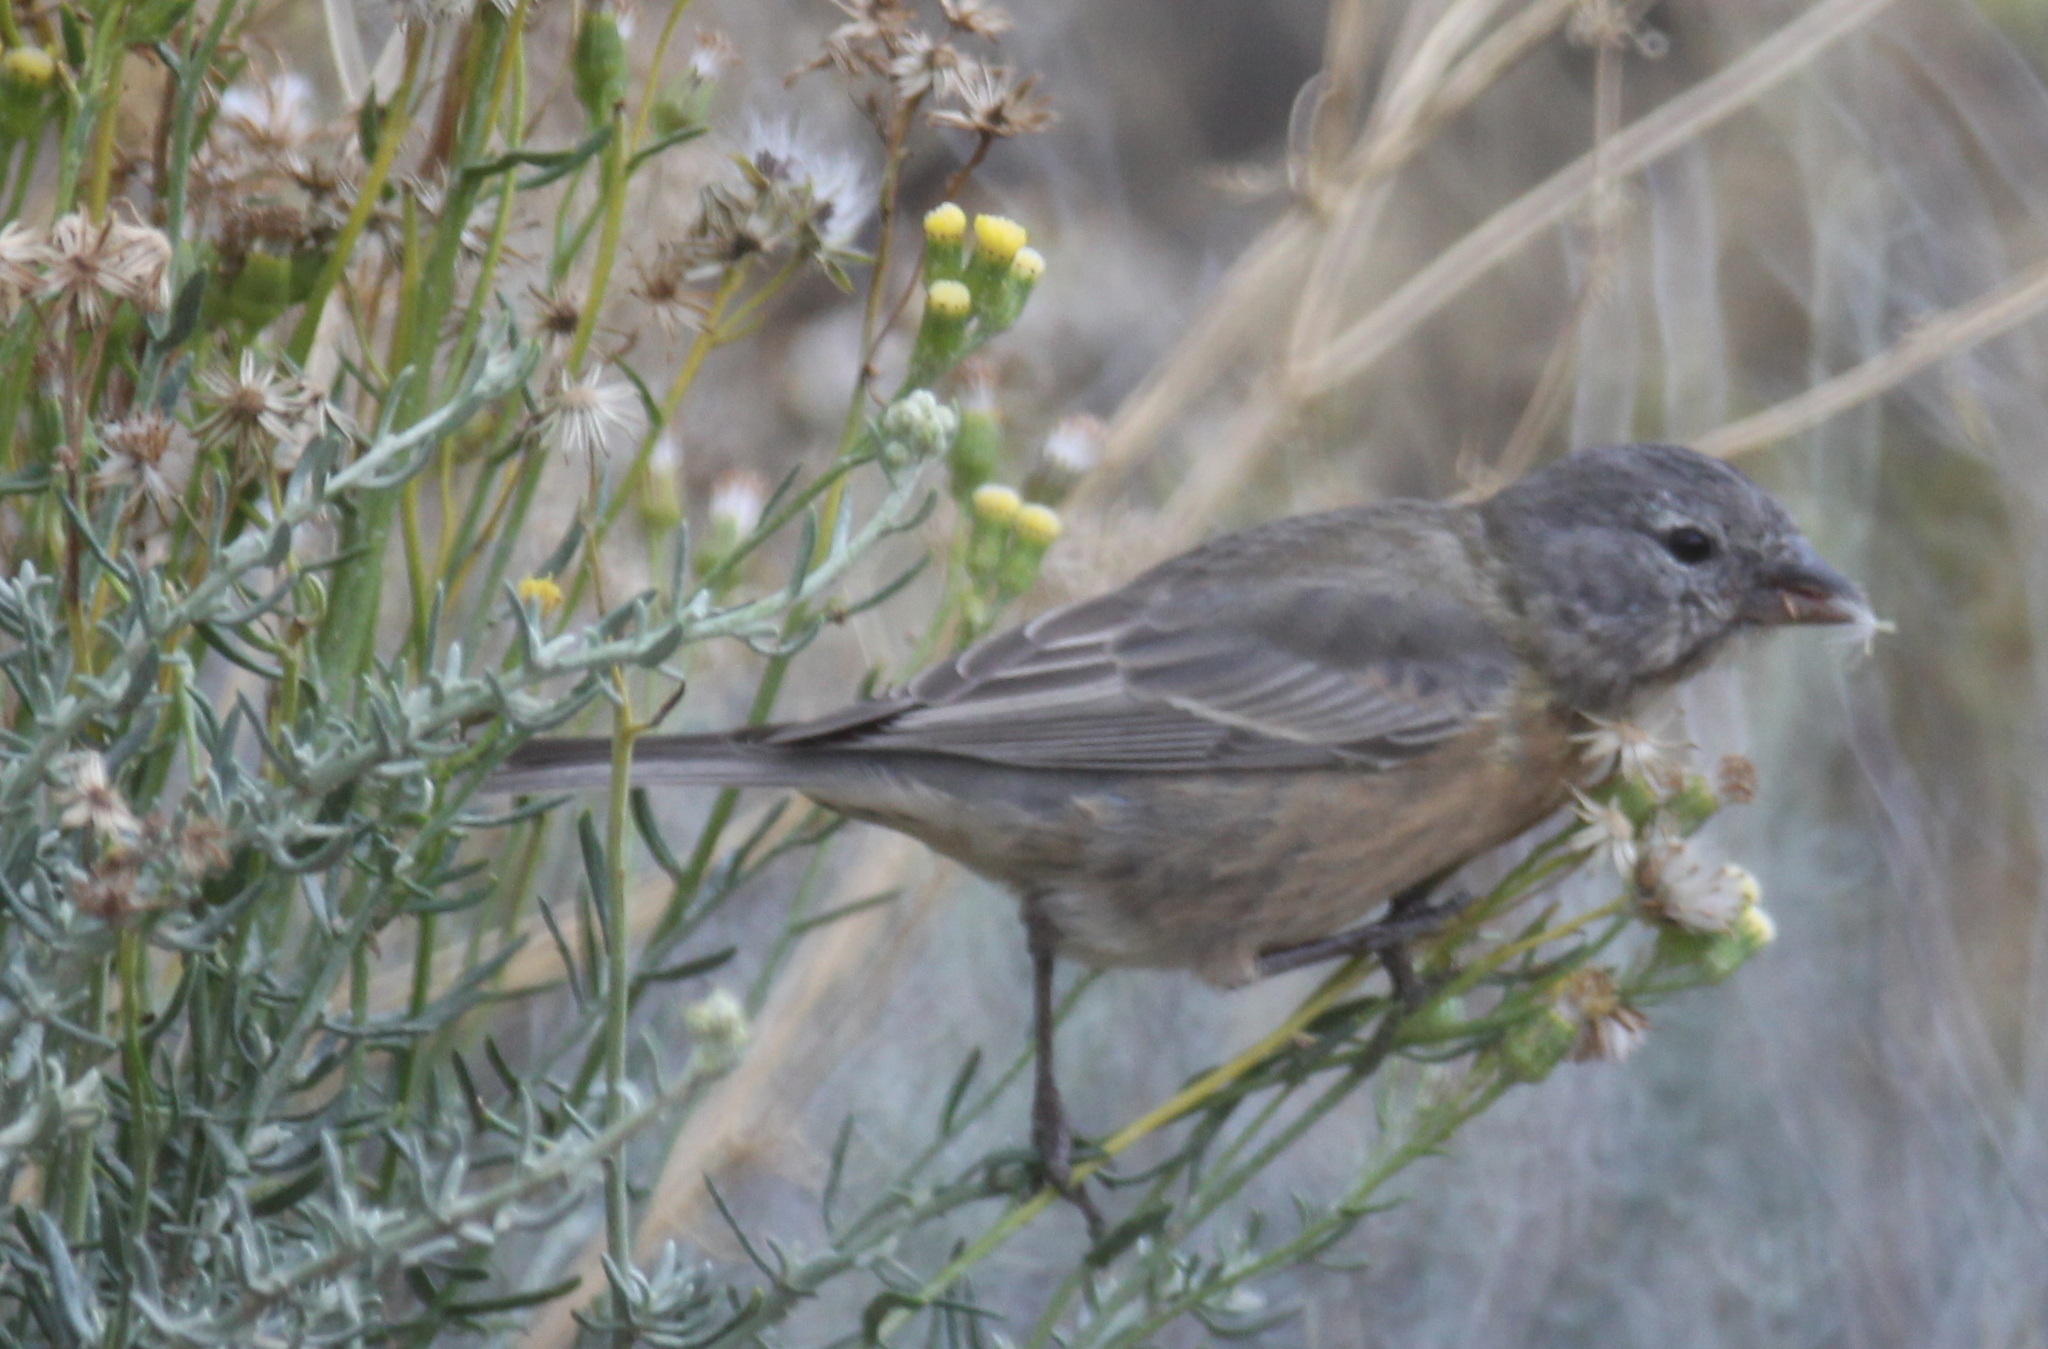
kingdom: Animalia
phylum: Chordata
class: Aves
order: Passeriformes
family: Thraupidae
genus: Phrygilus
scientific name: Phrygilus gayi
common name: Grey-hooded sierra finch
